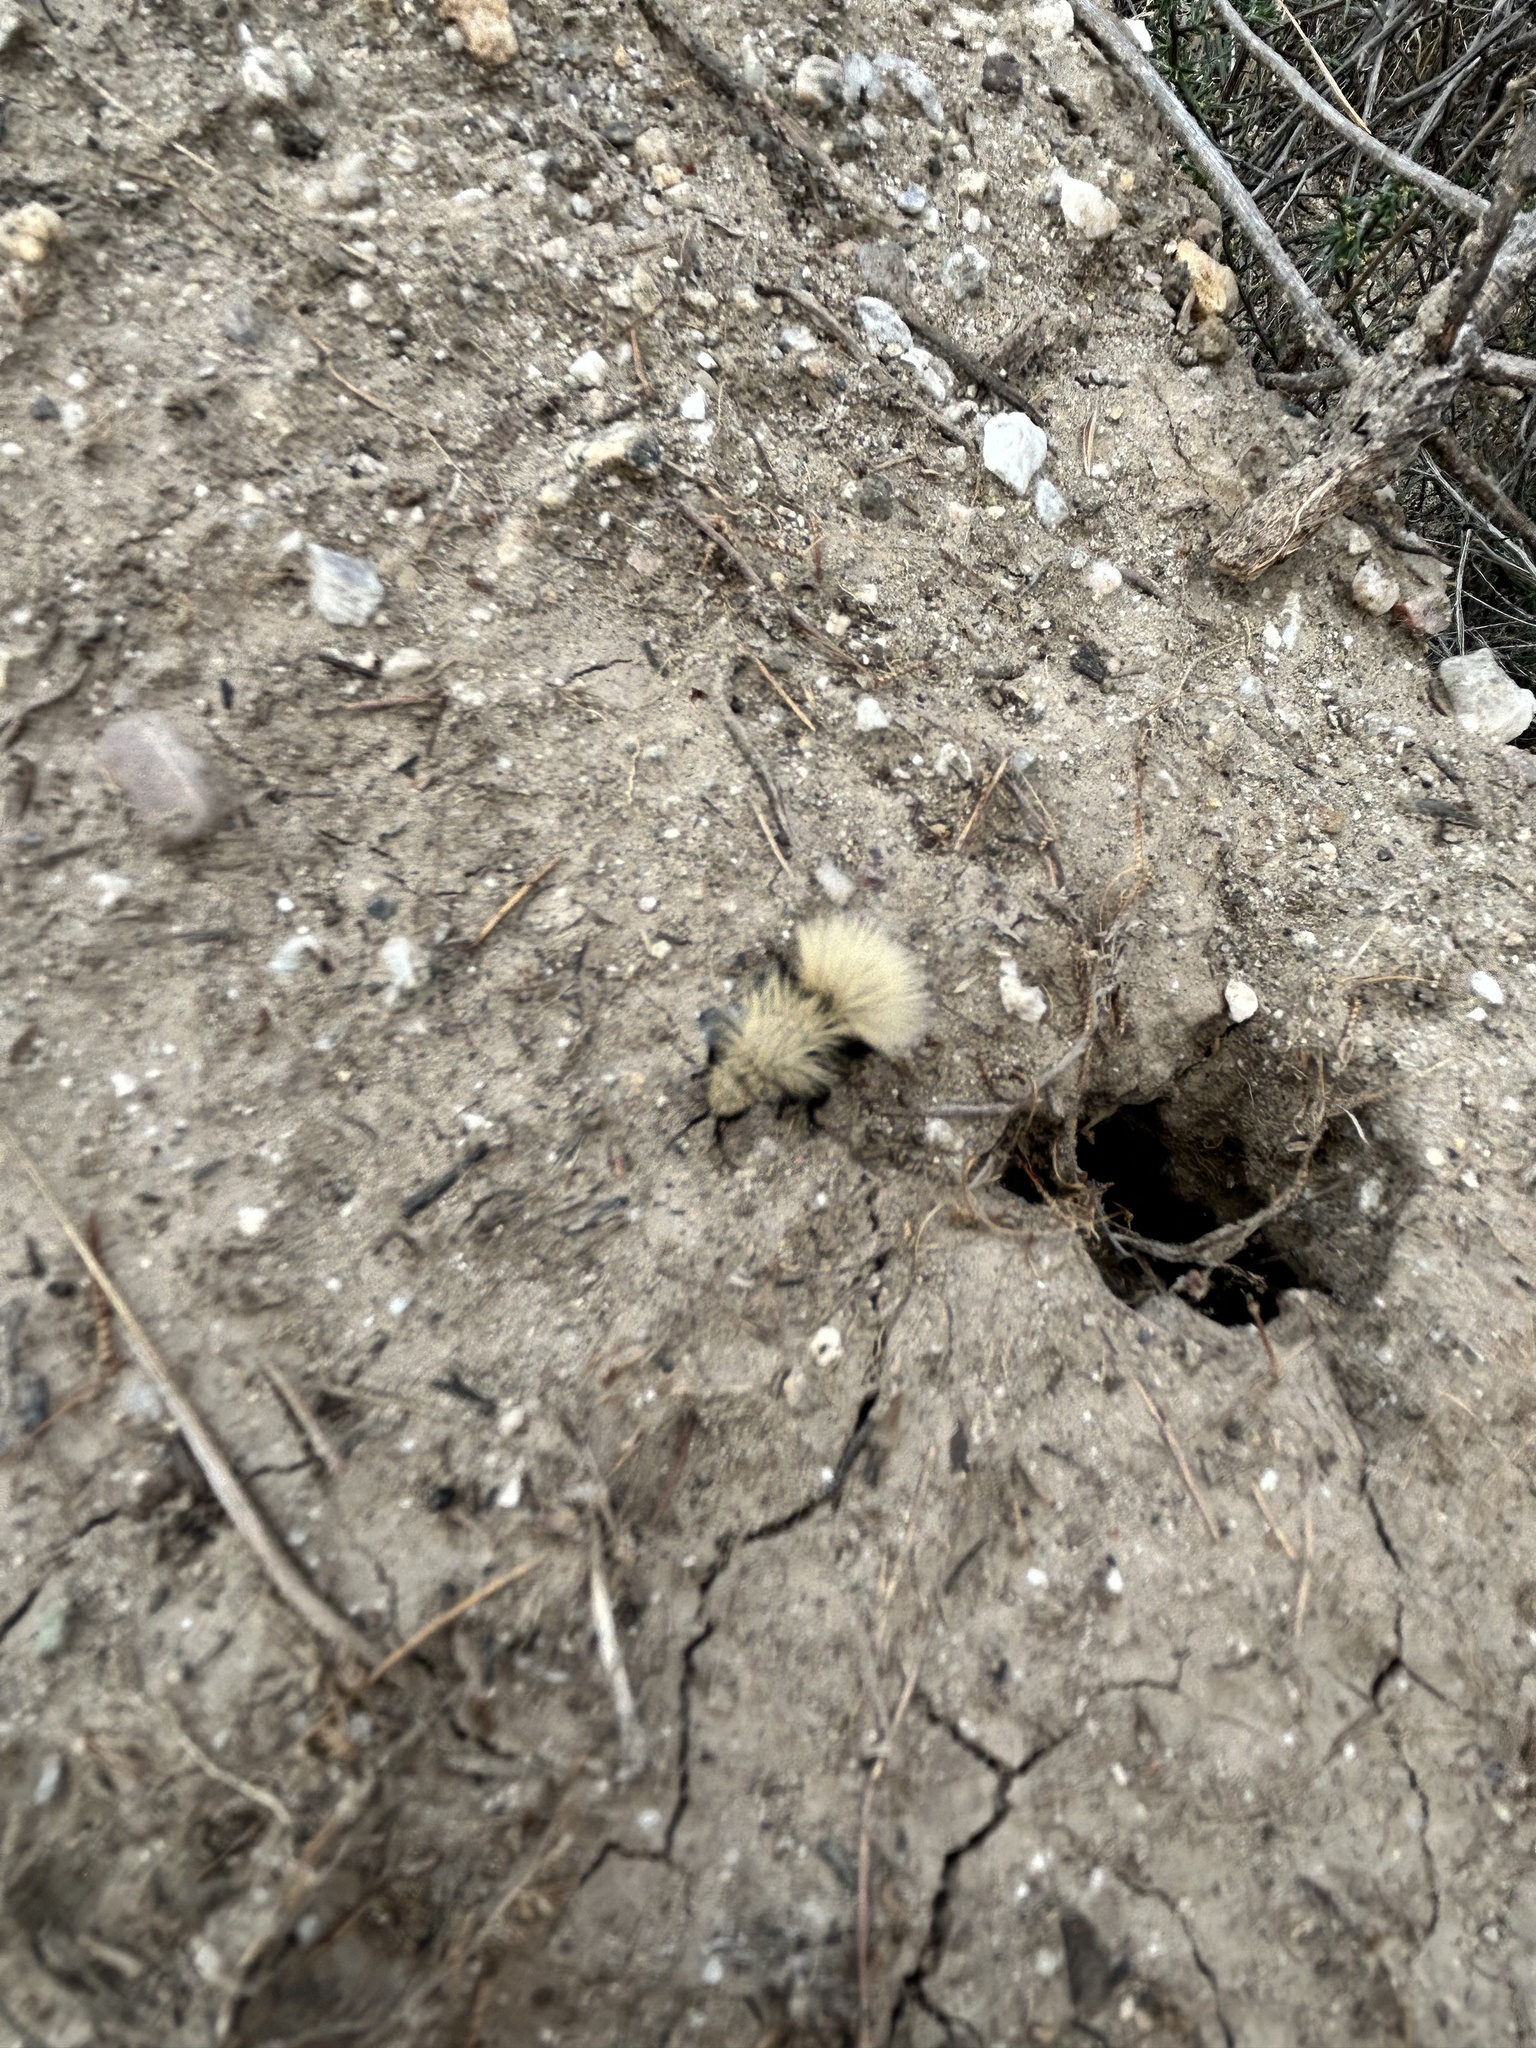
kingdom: Animalia
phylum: Arthropoda
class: Insecta
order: Hymenoptera
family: Mutillidae
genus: Dasymutilla
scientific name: Dasymutilla
